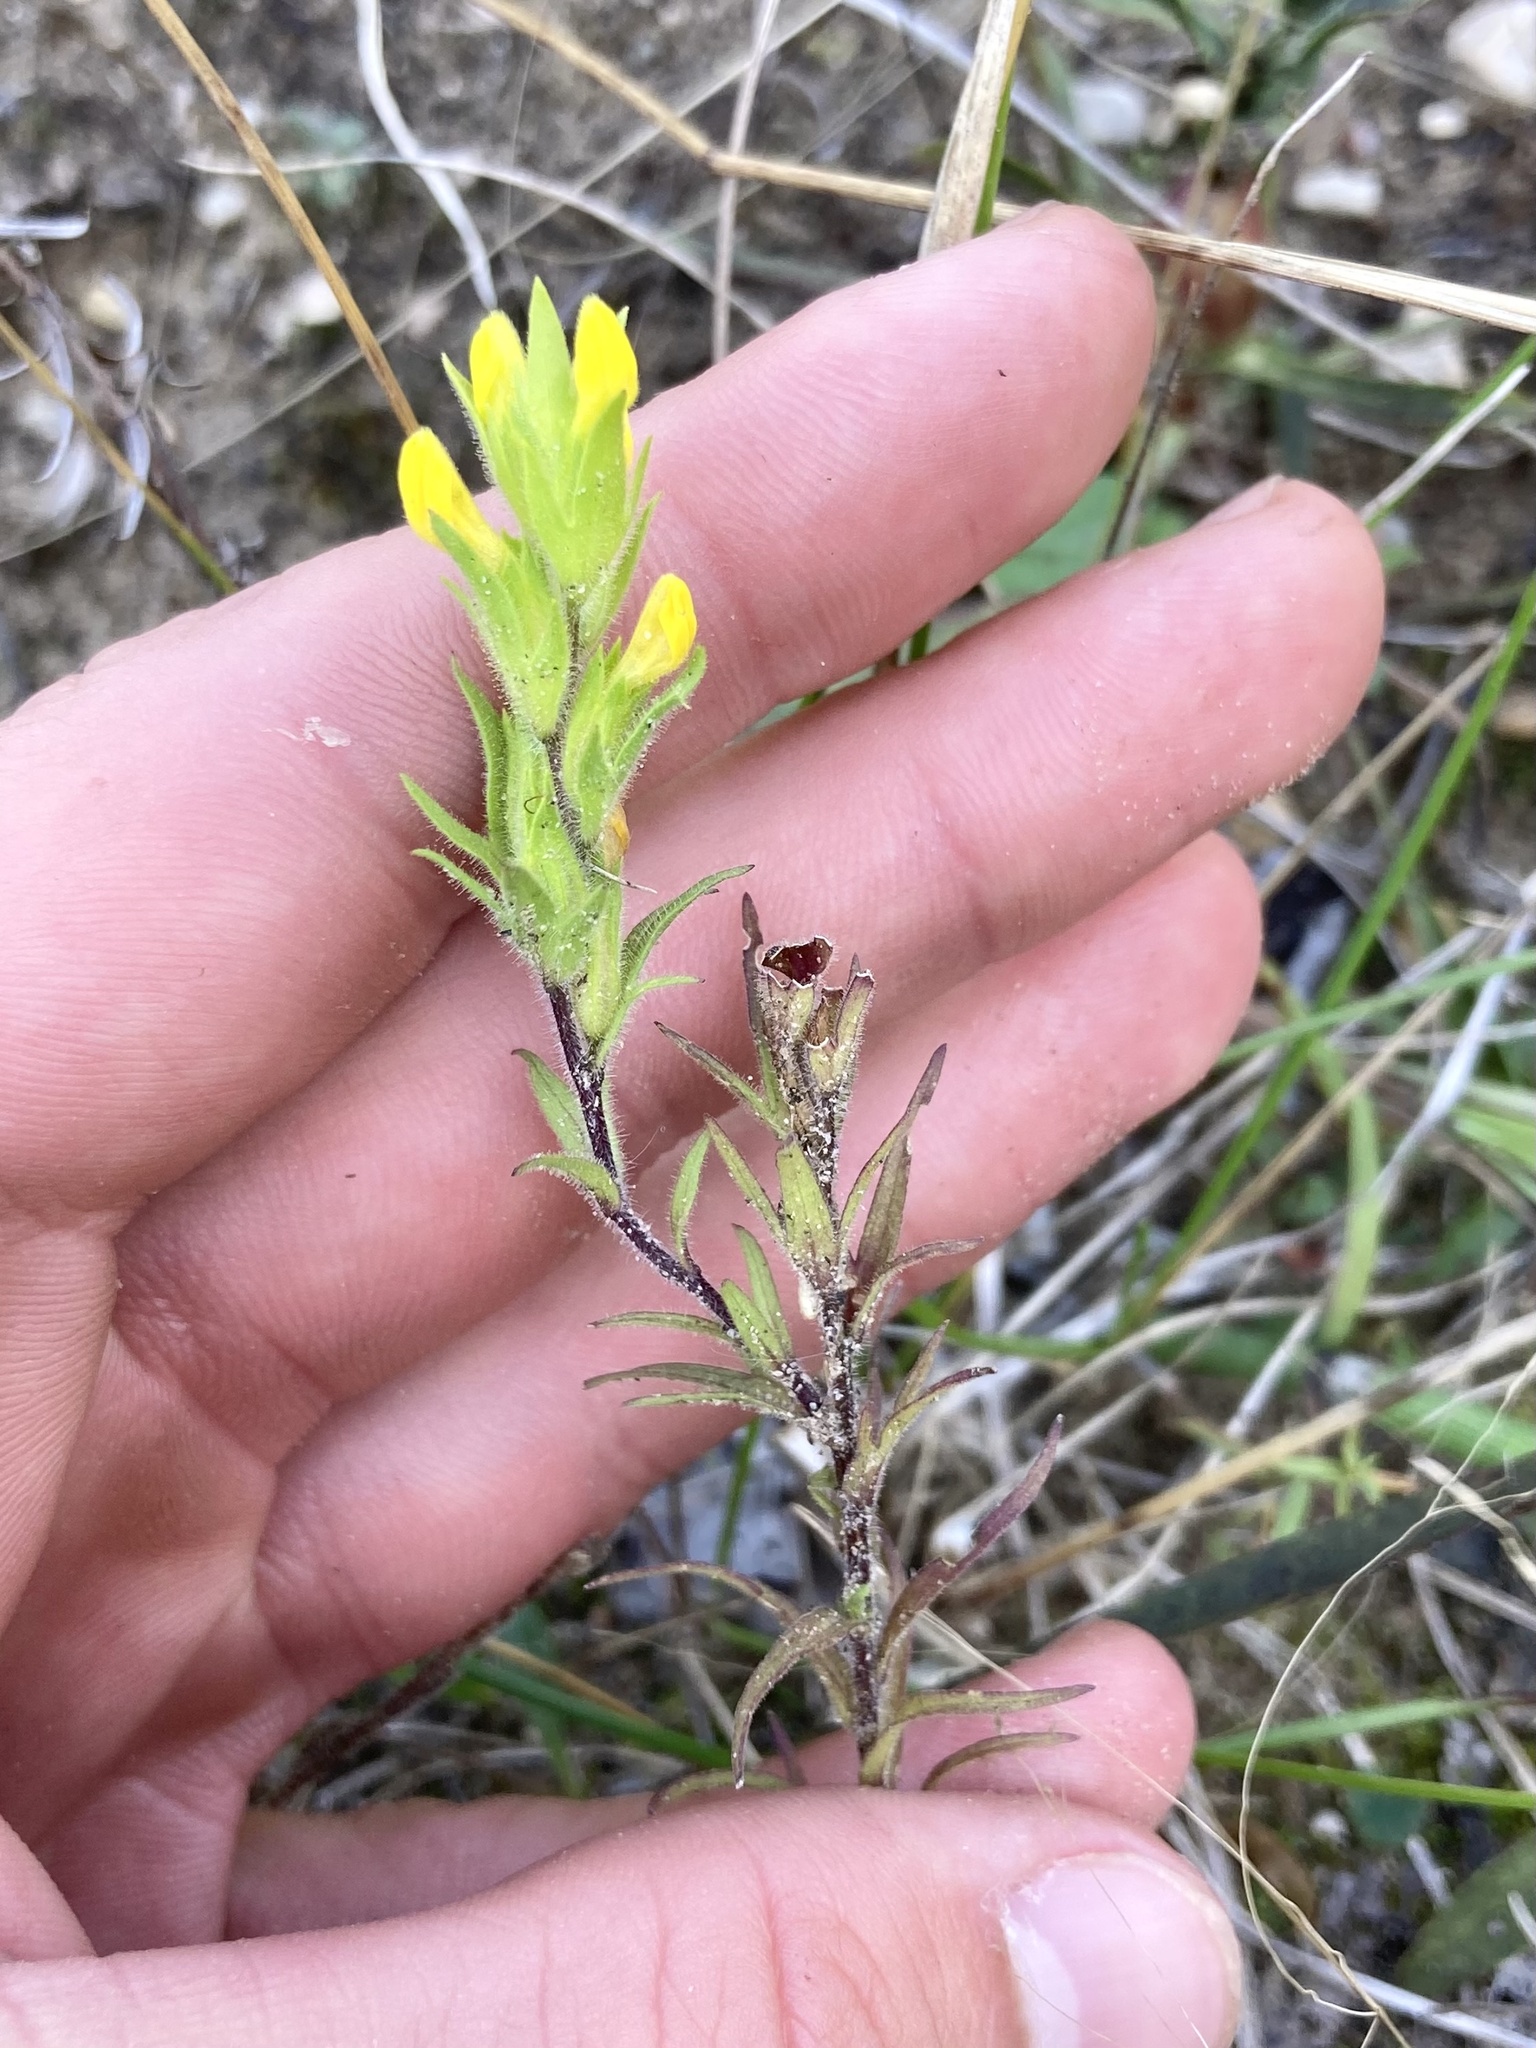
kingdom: Plantae
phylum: Tracheophyta
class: Magnoliopsida
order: Lamiales
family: Orobanchaceae
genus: Orthocarpus
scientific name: Orthocarpus luteus
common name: Golden-tongue owl's-clover
